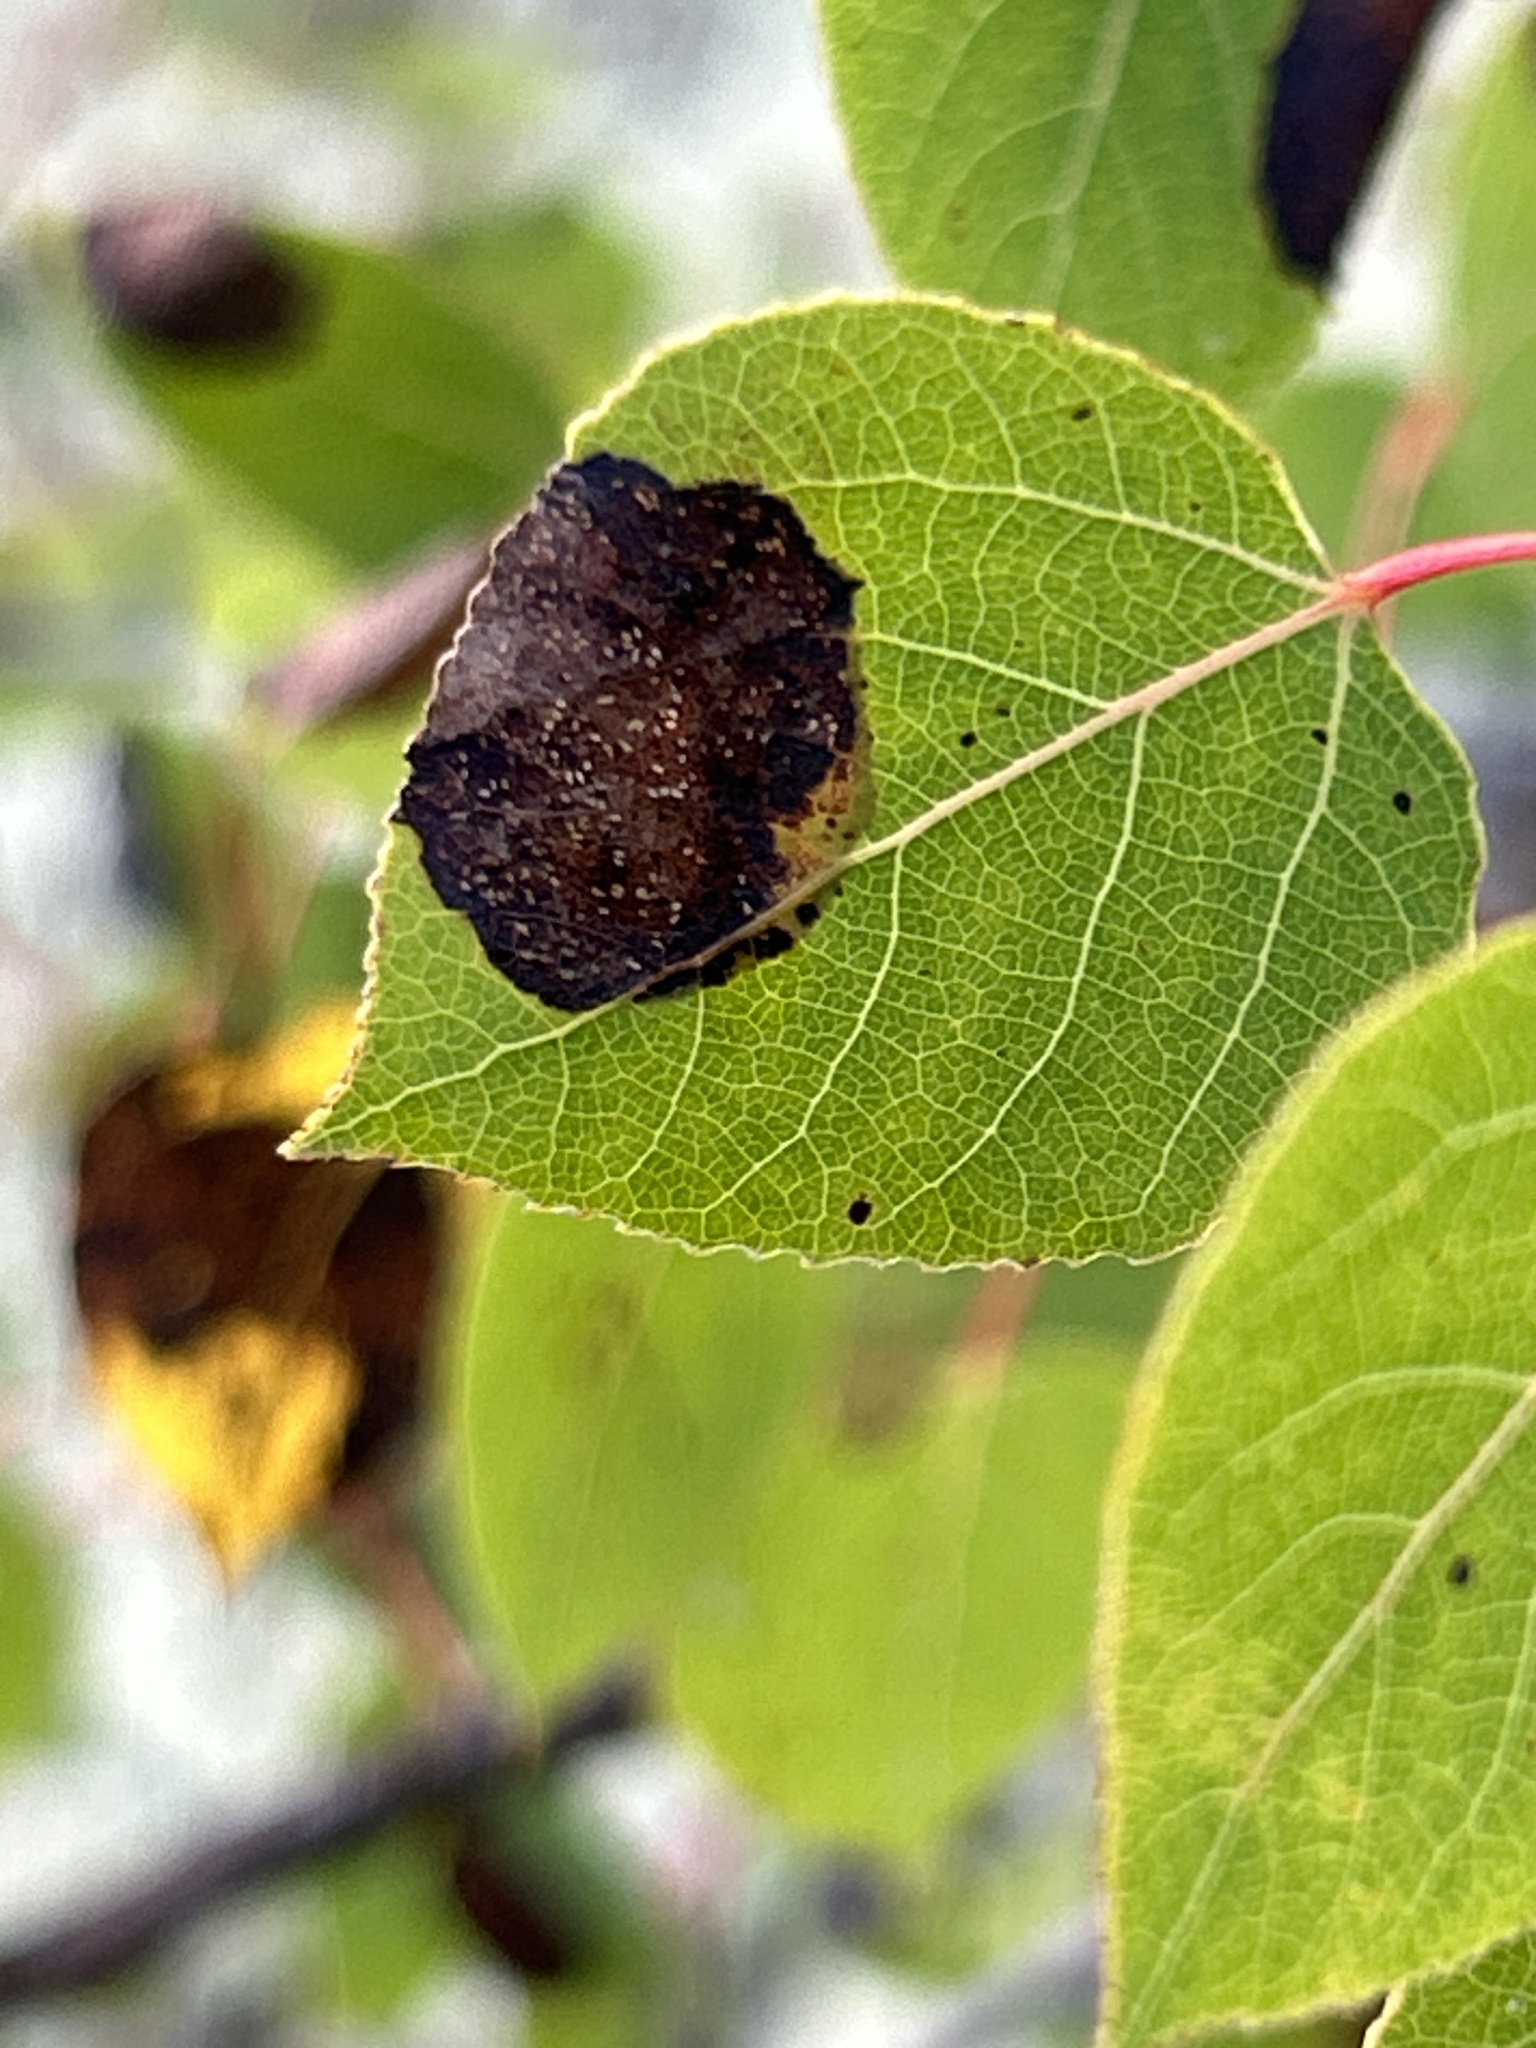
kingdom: Plantae
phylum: Tracheophyta
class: Magnoliopsida
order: Malpighiales
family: Salicaceae
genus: Populus
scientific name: Populus tremuloides
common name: Quaking aspen
